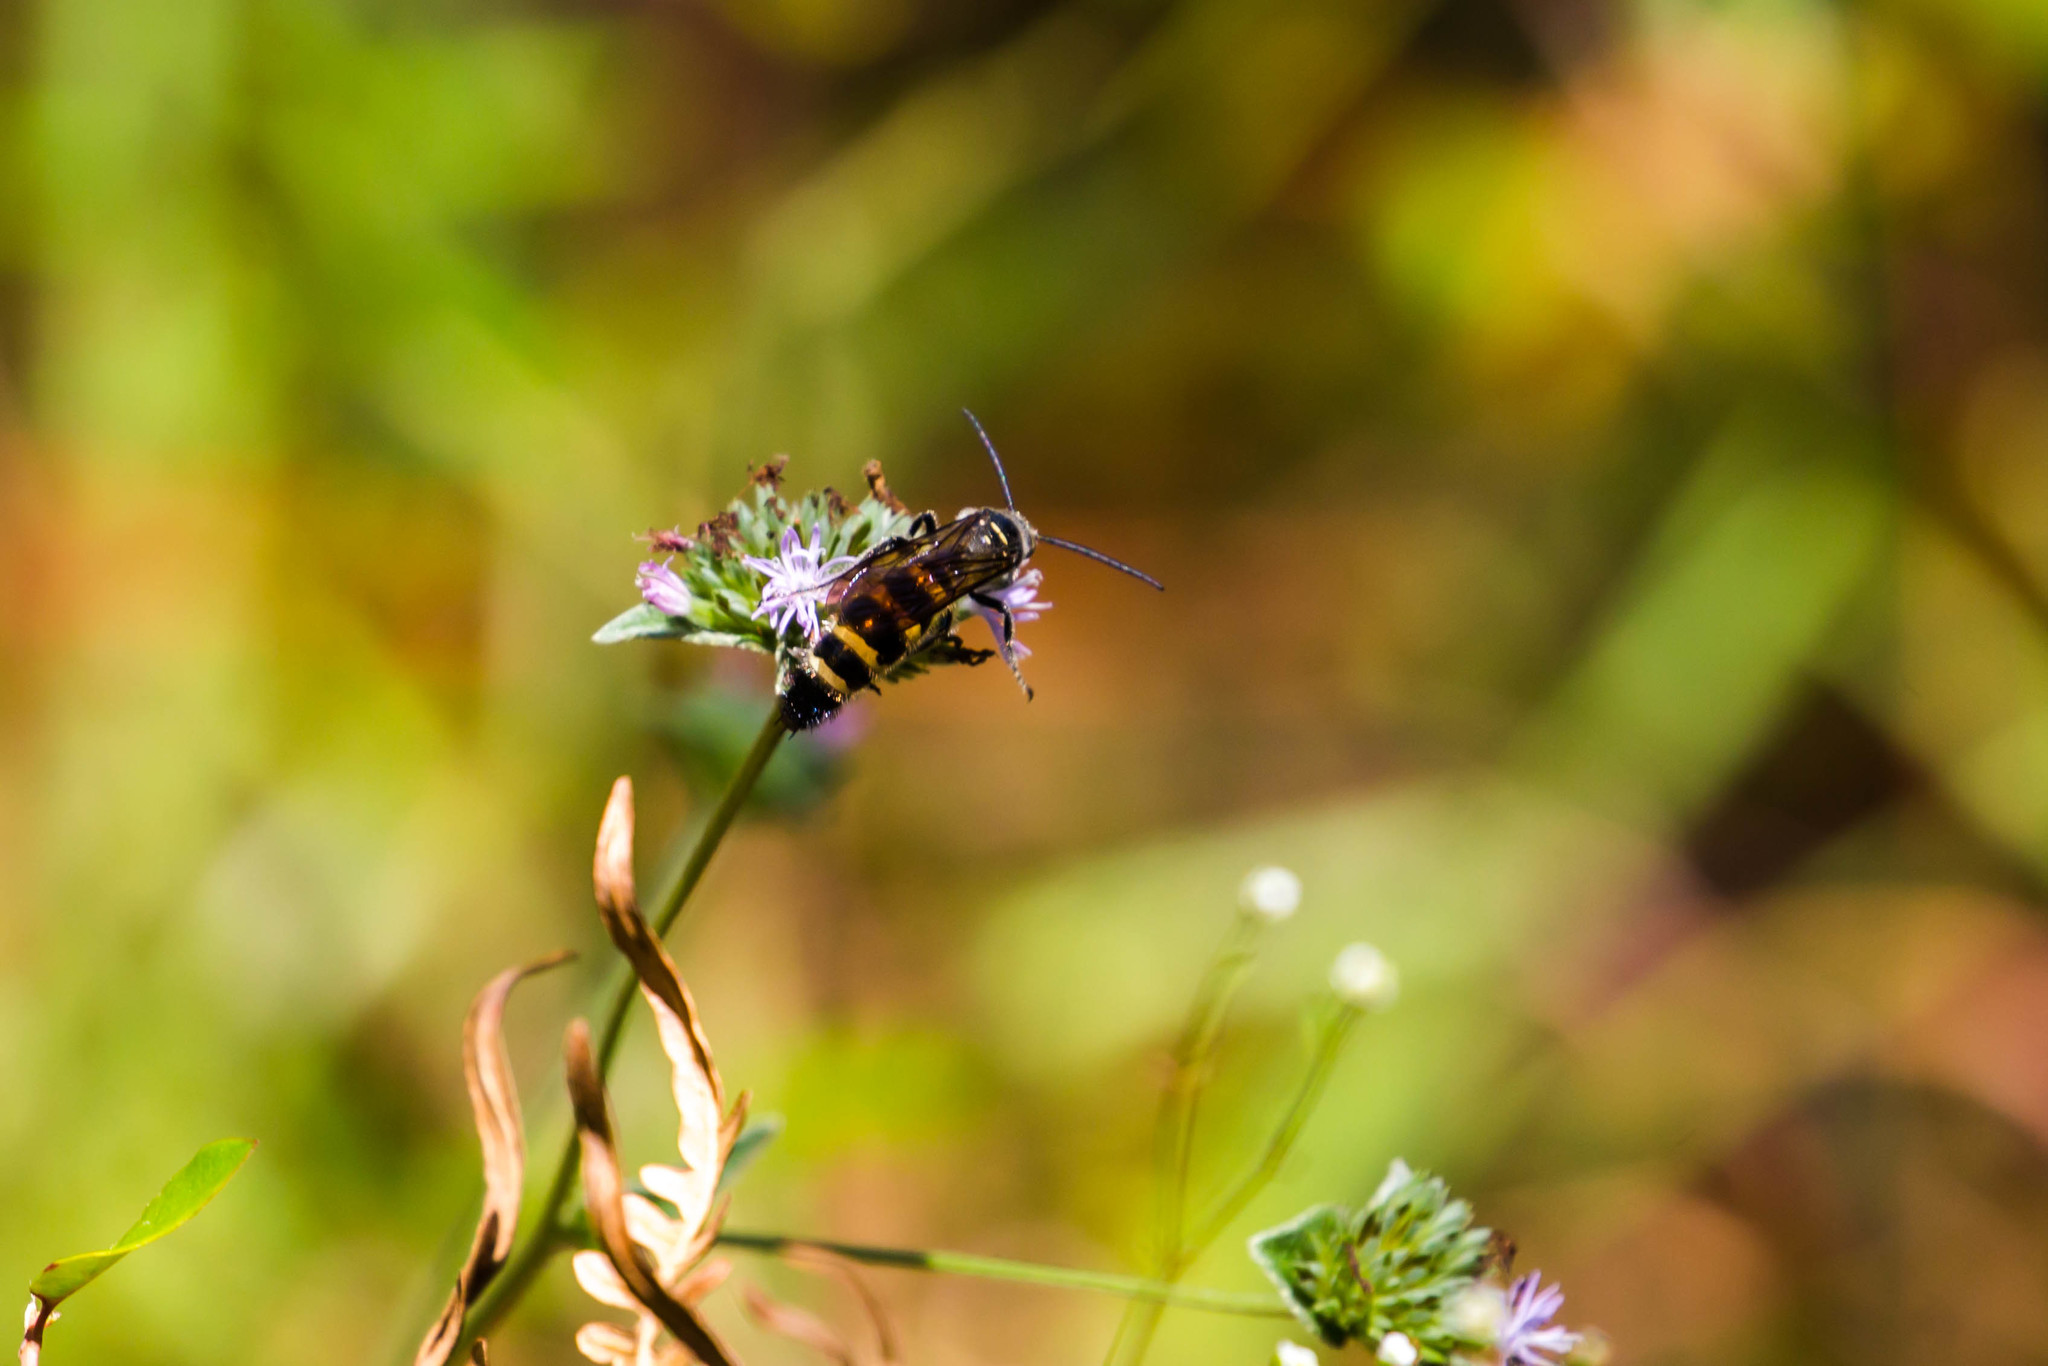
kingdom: Animalia
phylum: Arthropoda
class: Insecta
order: Hymenoptera
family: Scoliidae
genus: Dielis
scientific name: Dielis
